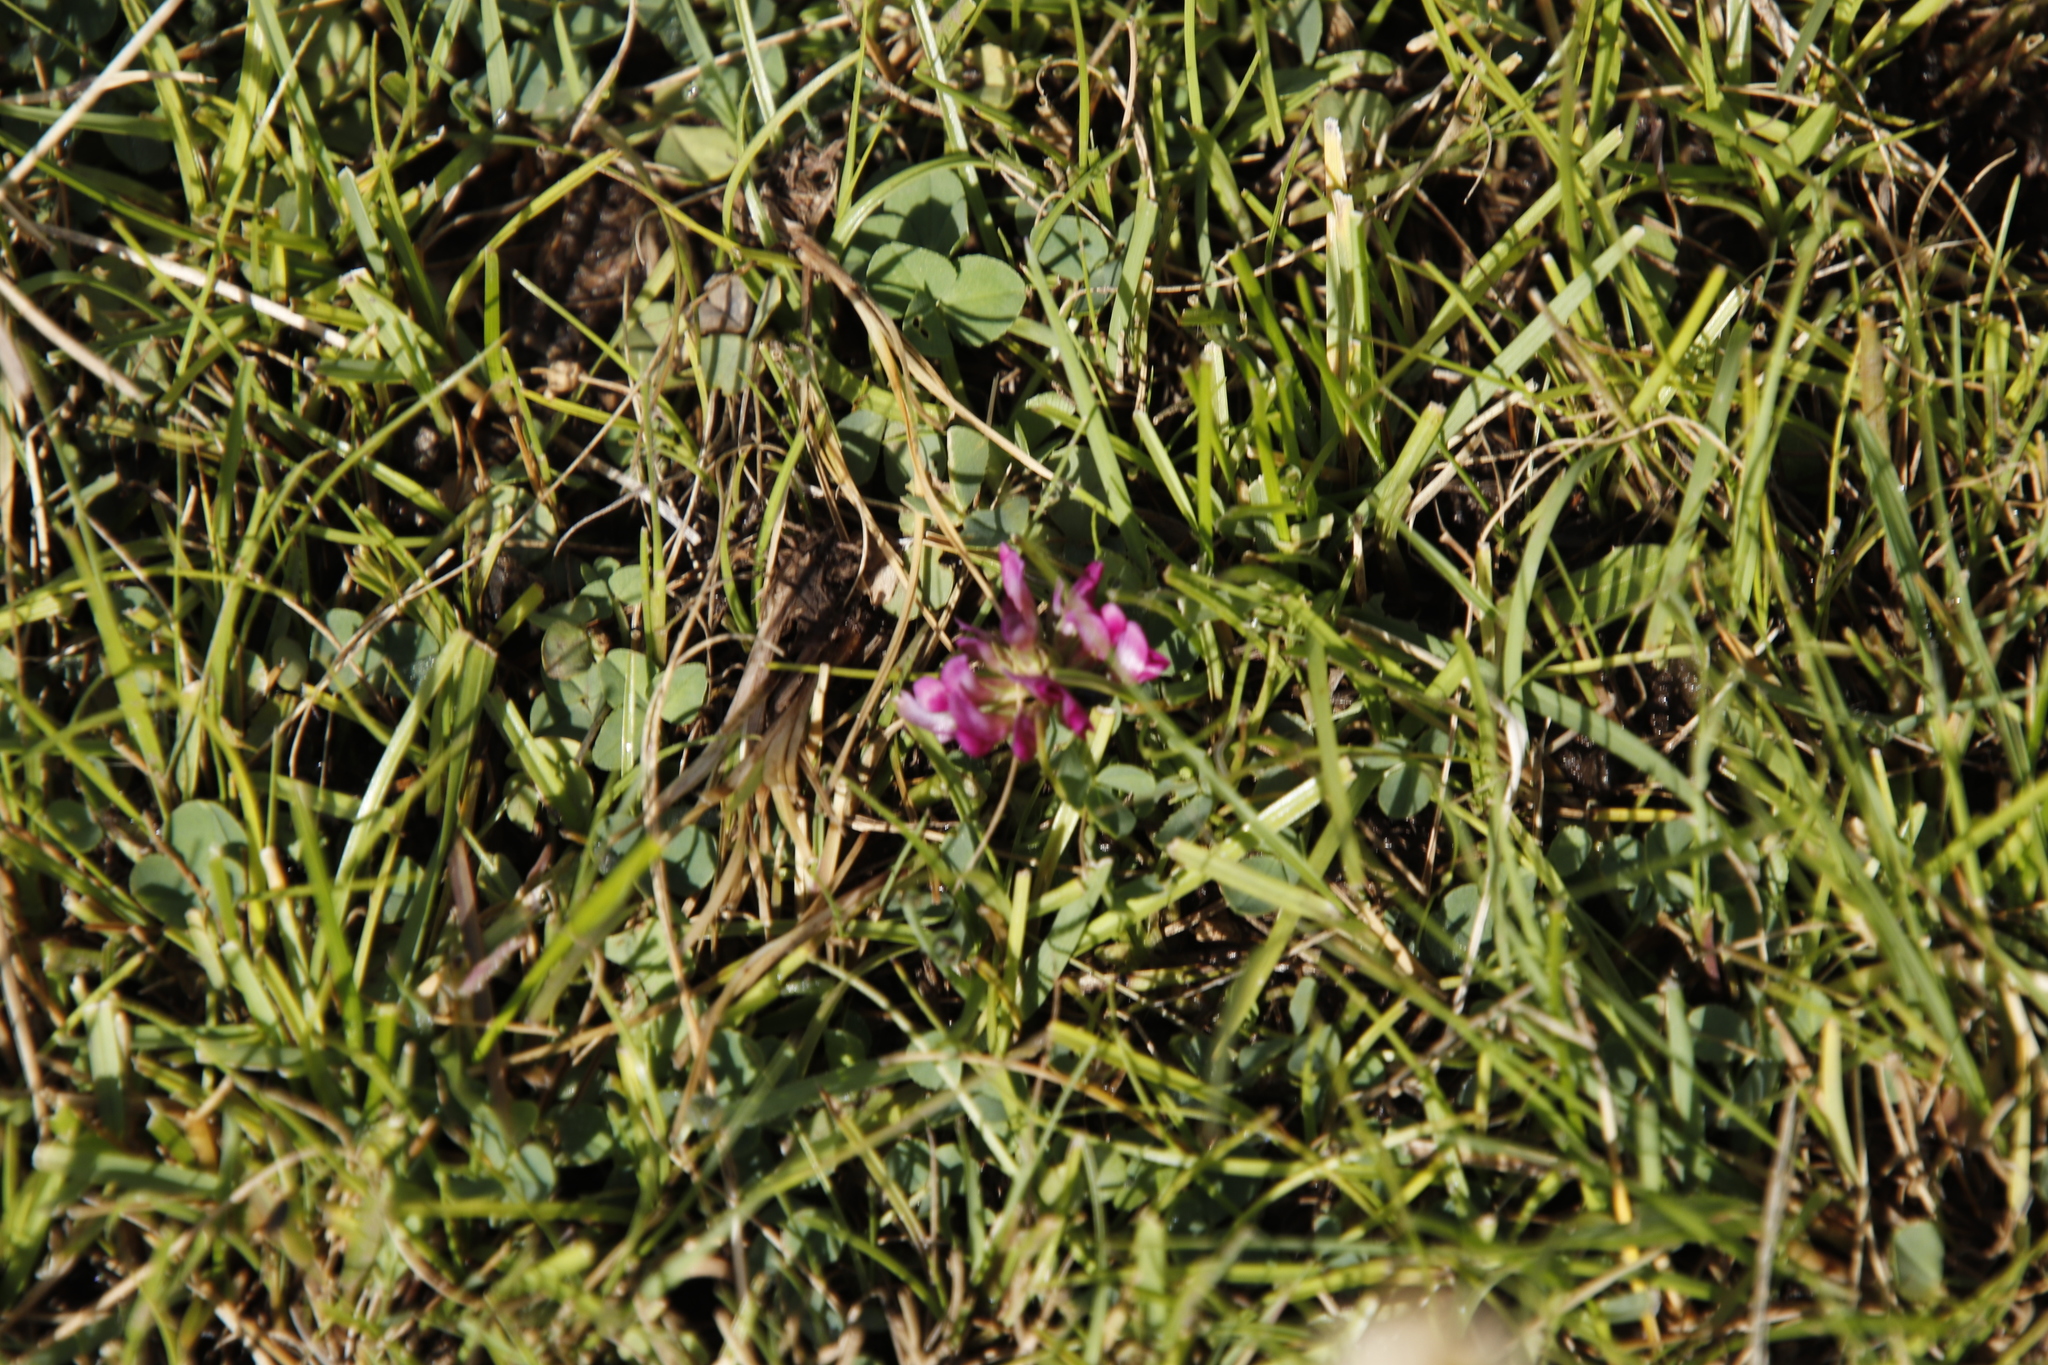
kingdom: Plantae
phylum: Tracheophyta
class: Magnoliopsida
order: Fabales
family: Fabaceae
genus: Trifolium
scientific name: Trifolium burchellianum
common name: Burchell's clover
